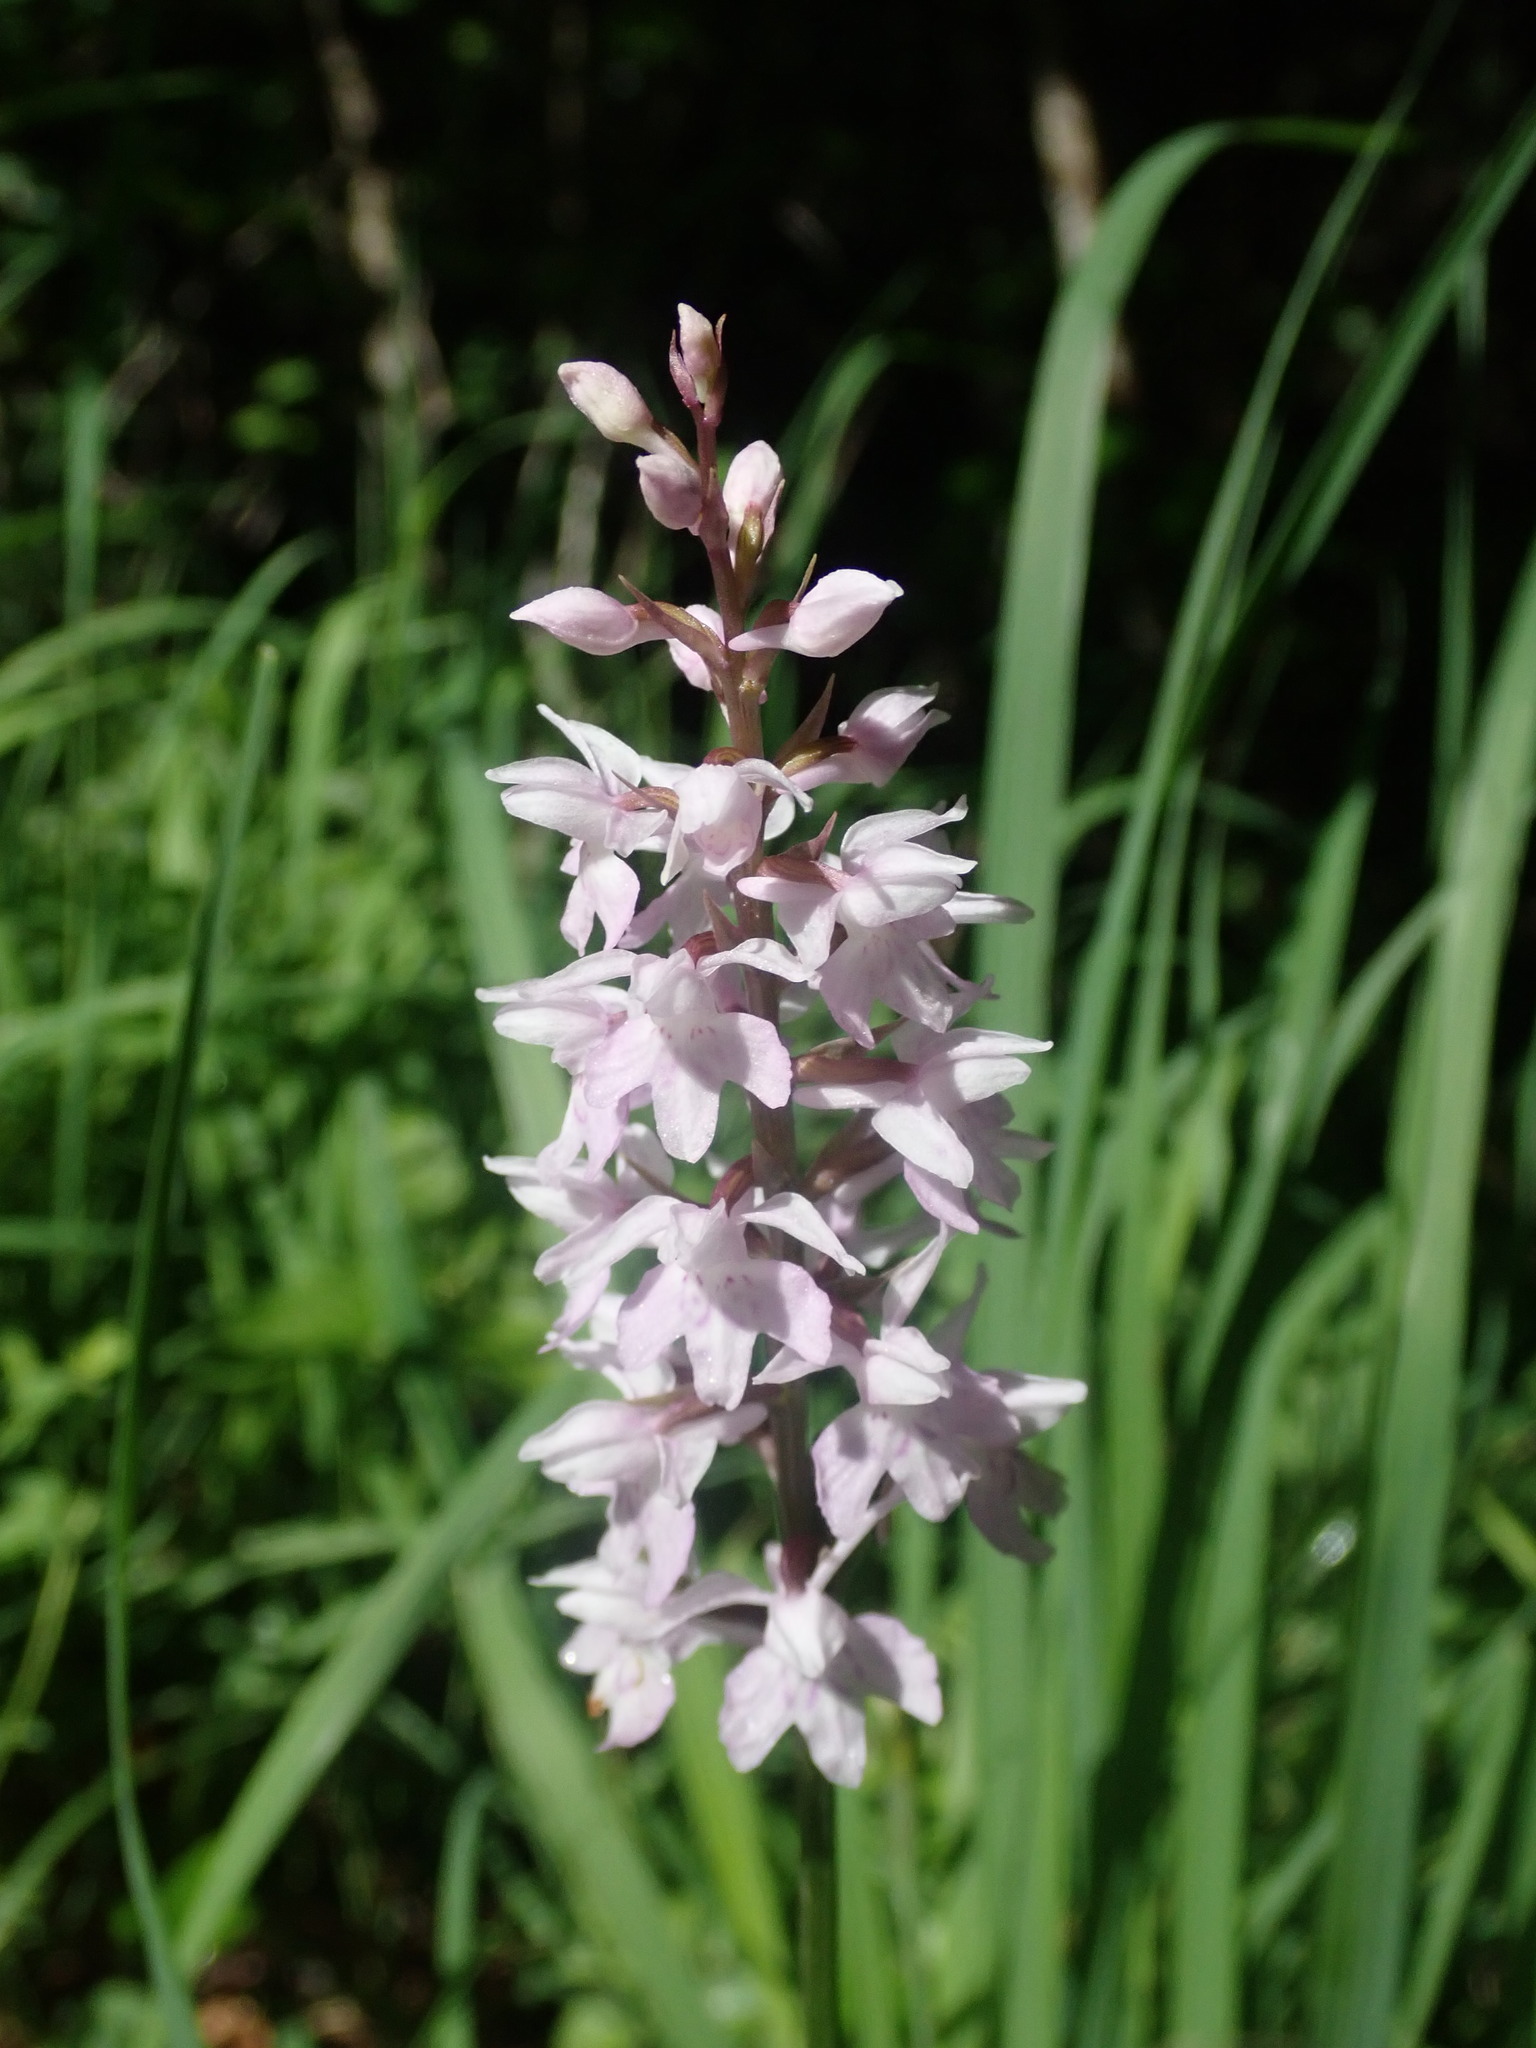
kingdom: Plantae
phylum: Tracheophyta
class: Liliopsida
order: Asparagales
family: Orchidaceae
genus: Dactylorhiza
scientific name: Dactylorhiza maculata
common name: Heath spotted-orchid
